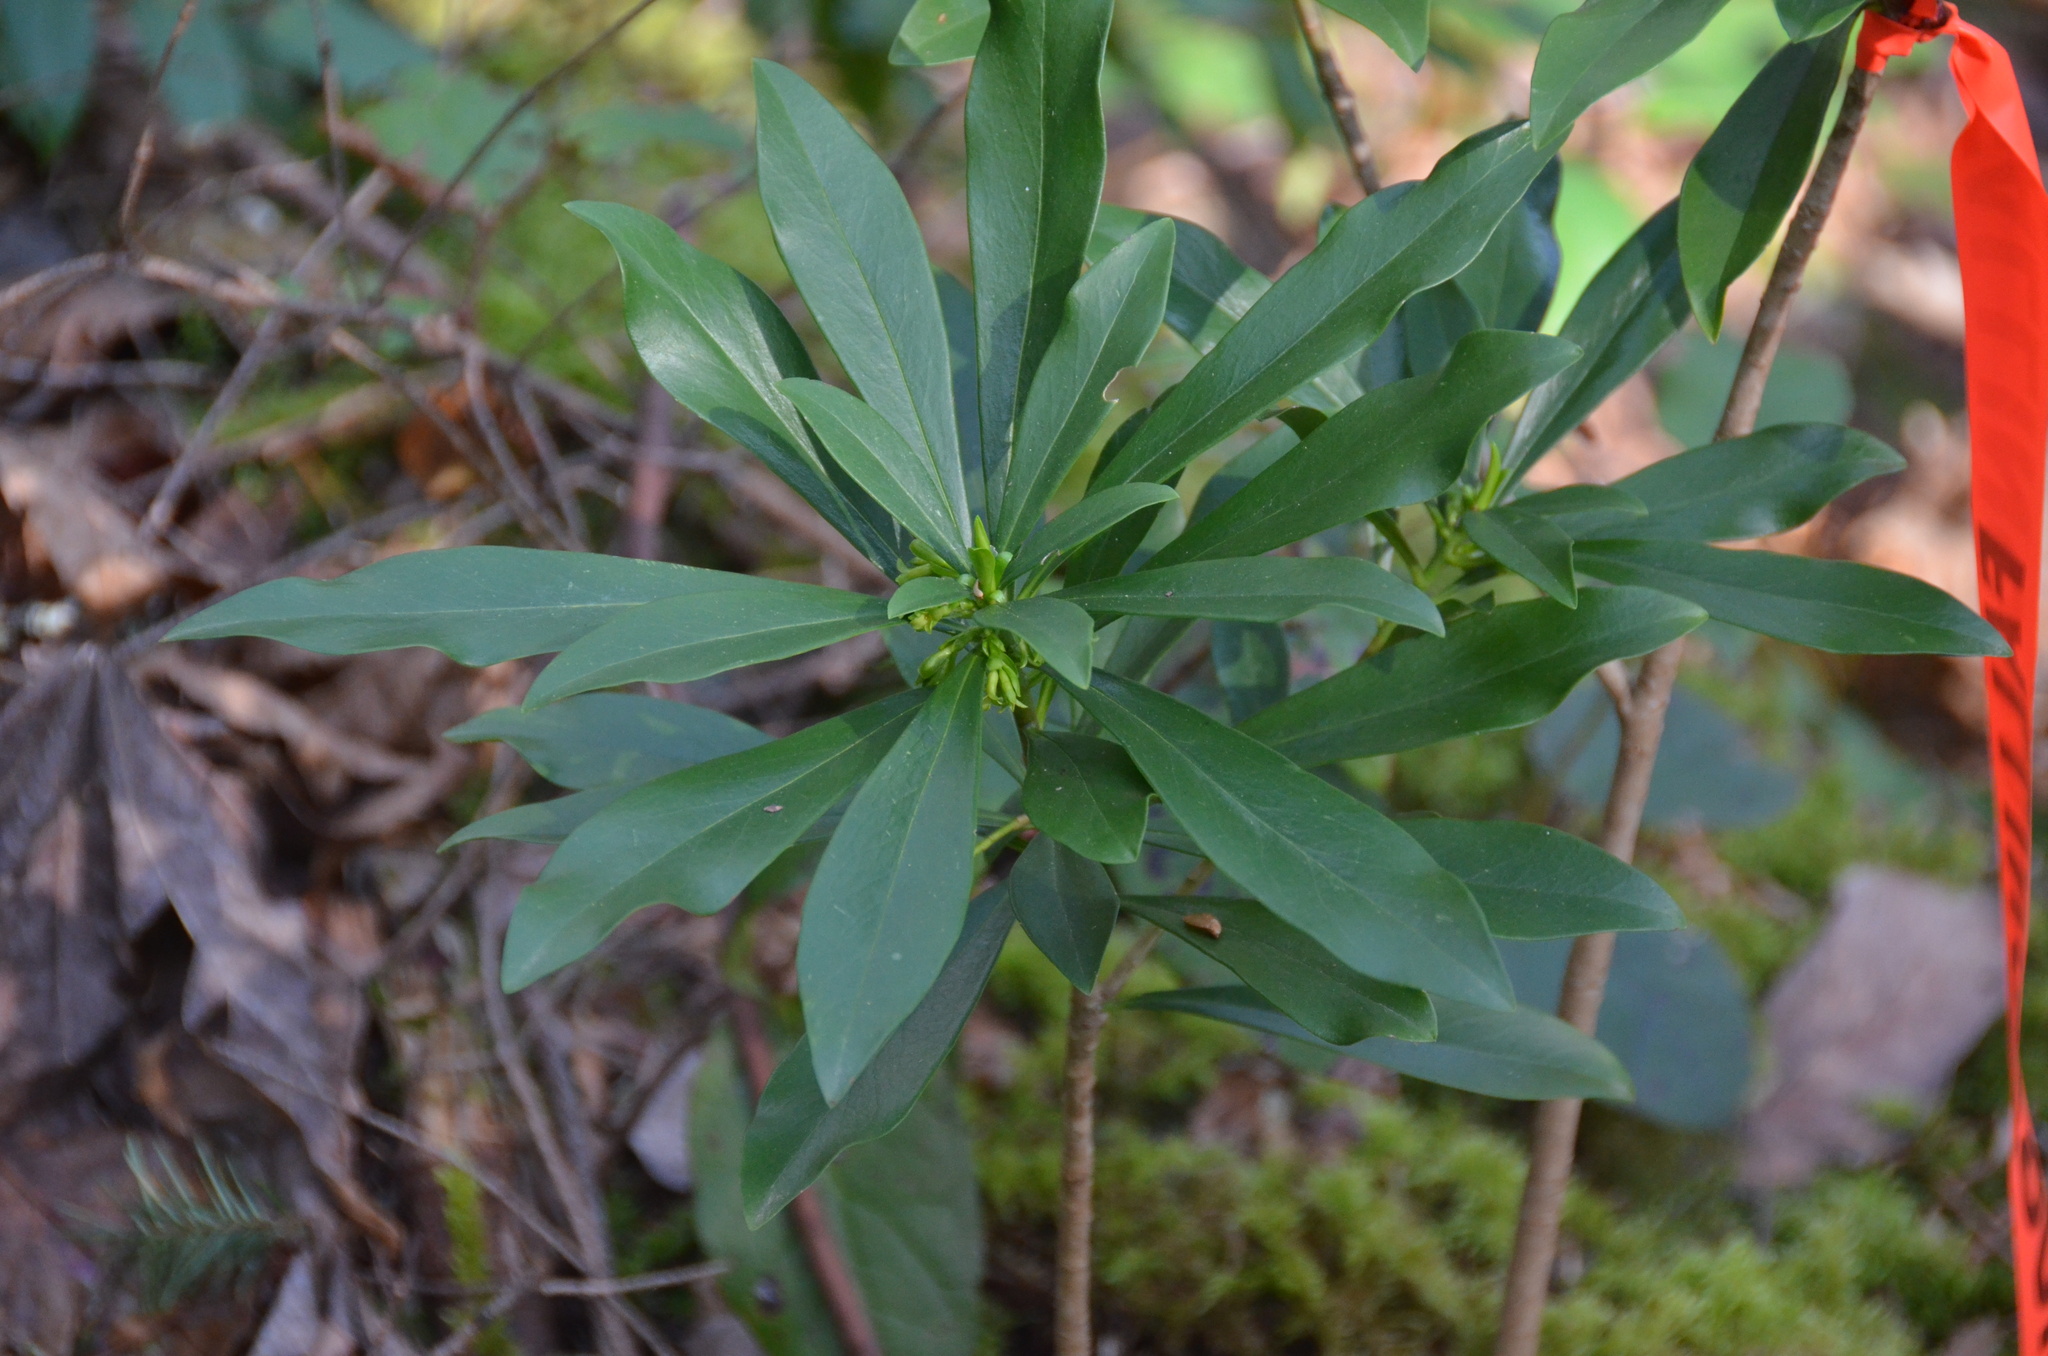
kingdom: Plantae
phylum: Tracheophyta
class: Magnoliopsida
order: Malvales
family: Thymelaeaceae
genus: Daphne
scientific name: Daphne laureola
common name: Spurge-laurel
